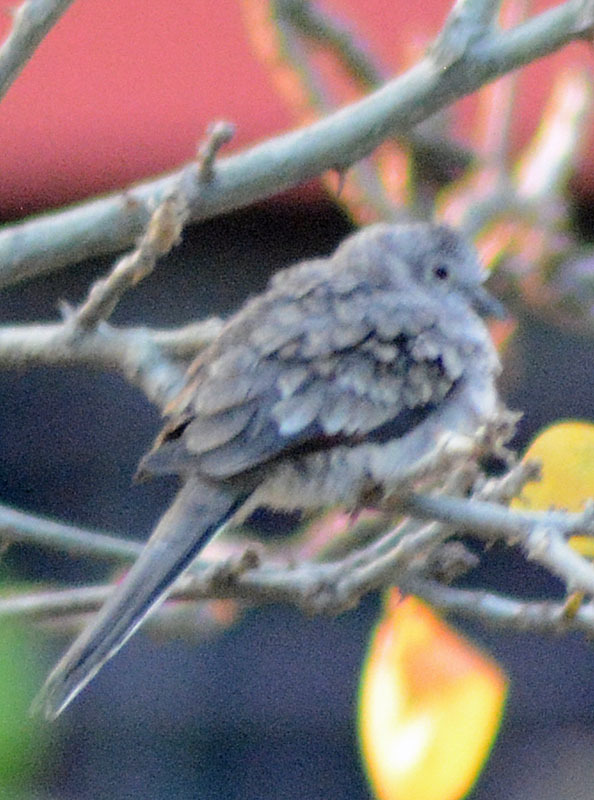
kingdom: Animalia
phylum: Chordata
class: Aves
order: Columbiformes
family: Columbidae
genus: Columbina
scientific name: Columbina inca
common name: Inca dove
